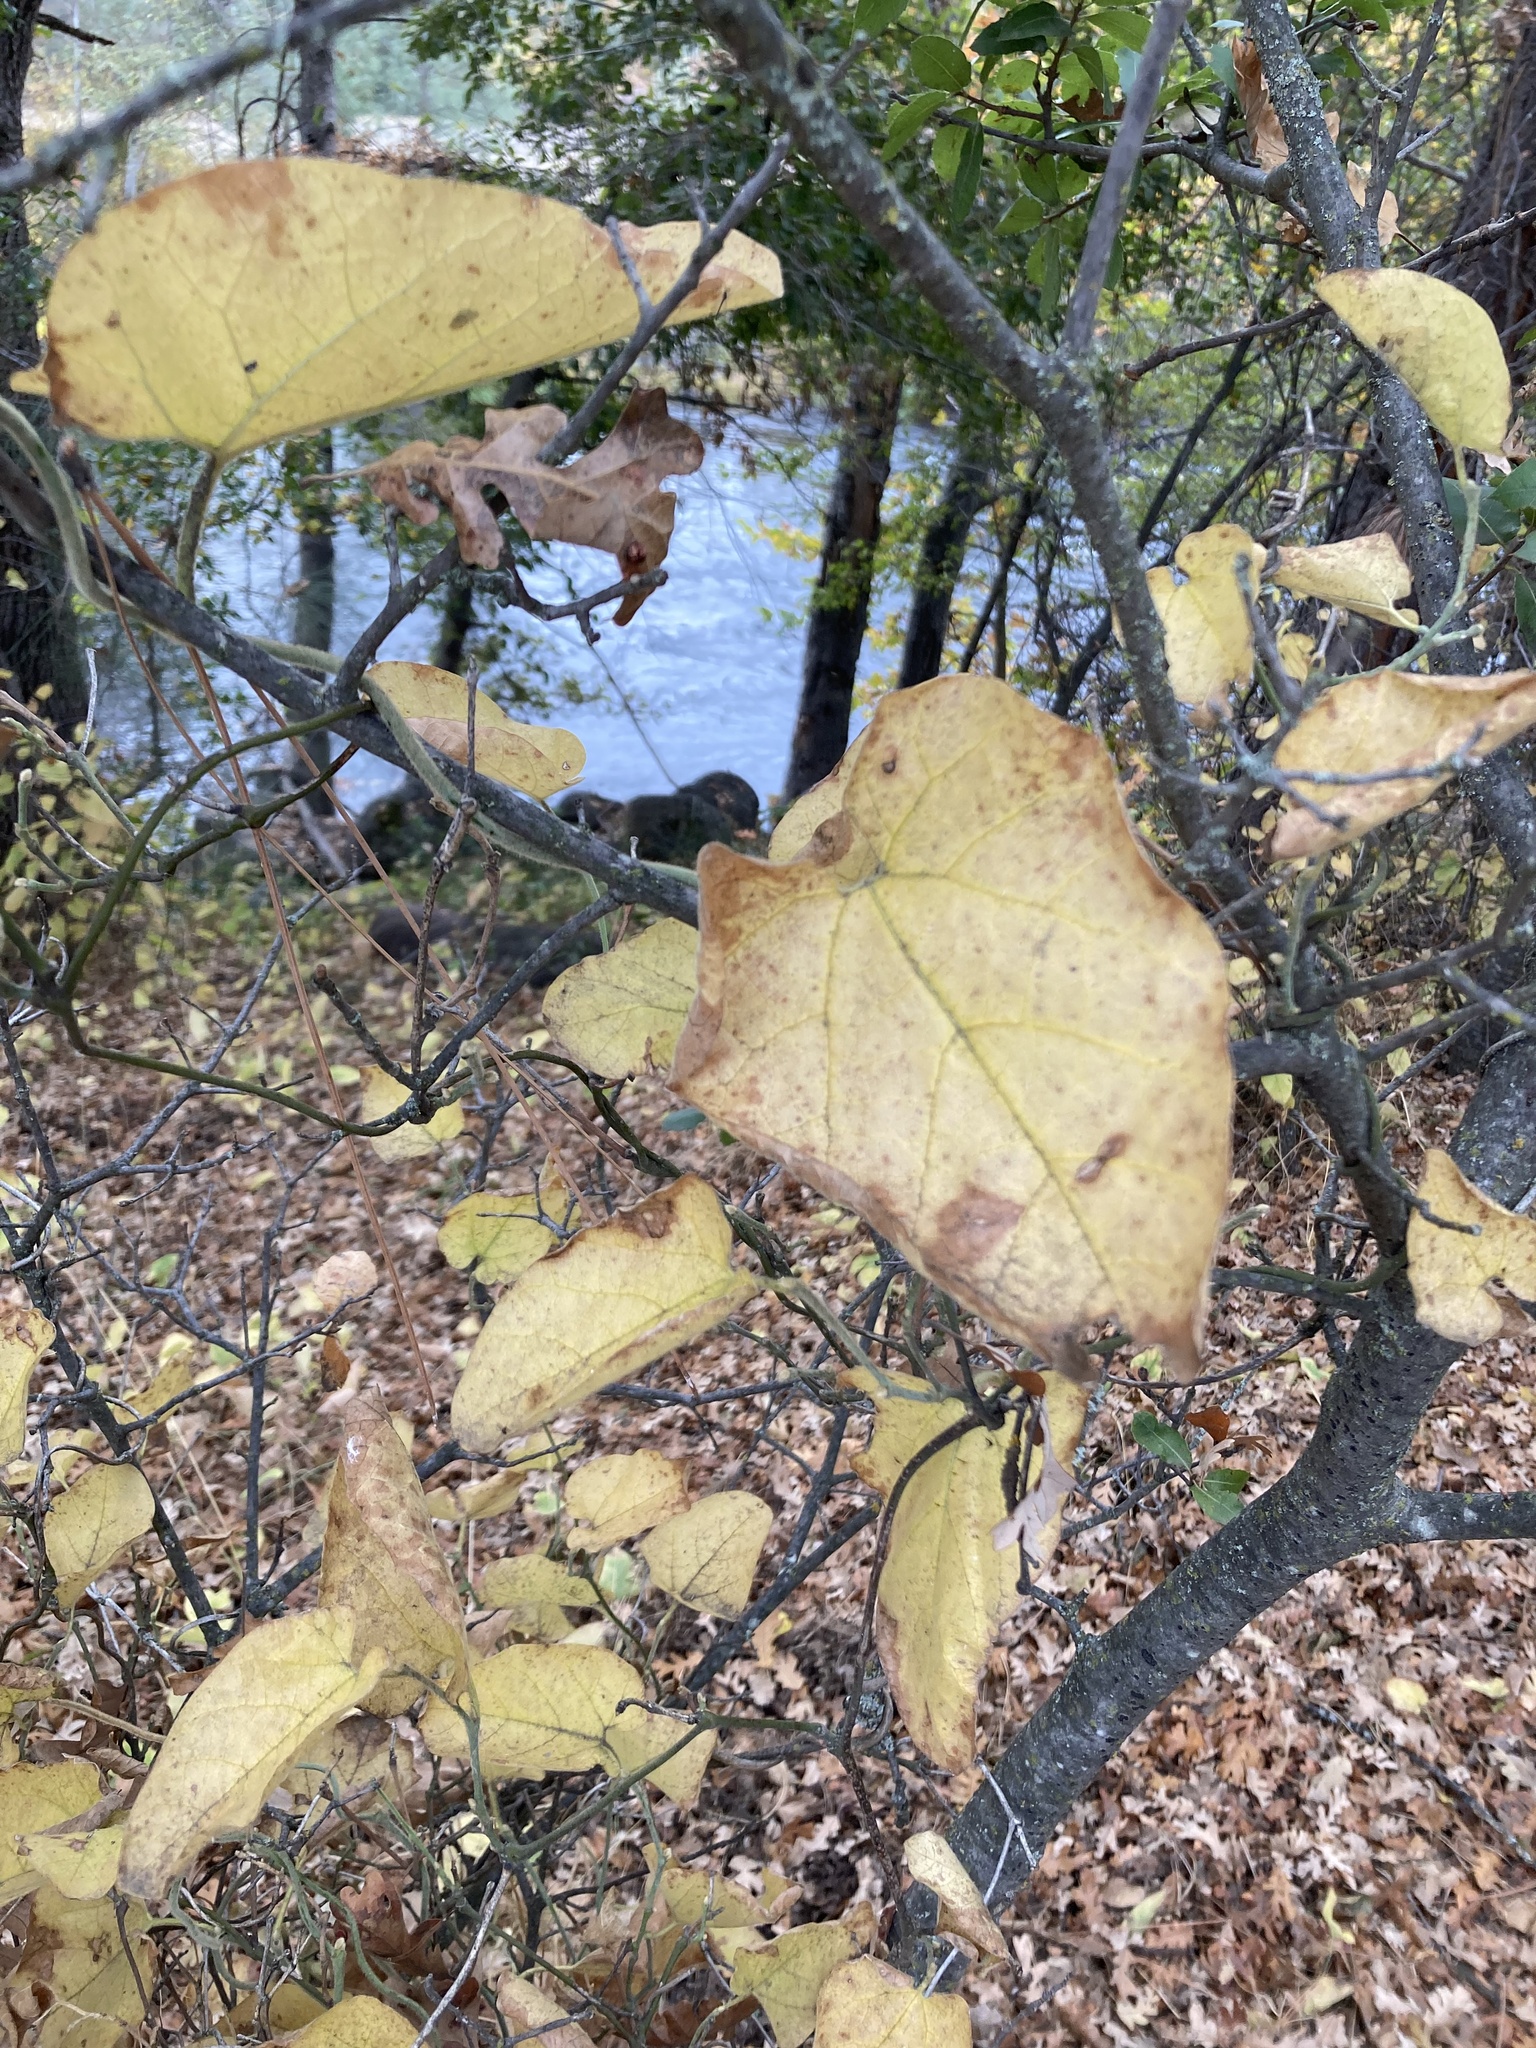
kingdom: Plantae
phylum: Tracheophyta
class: Magnoliopsida
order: Piperales
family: Aristolochiaceae
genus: Isotrema
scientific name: Isotrema californicum
